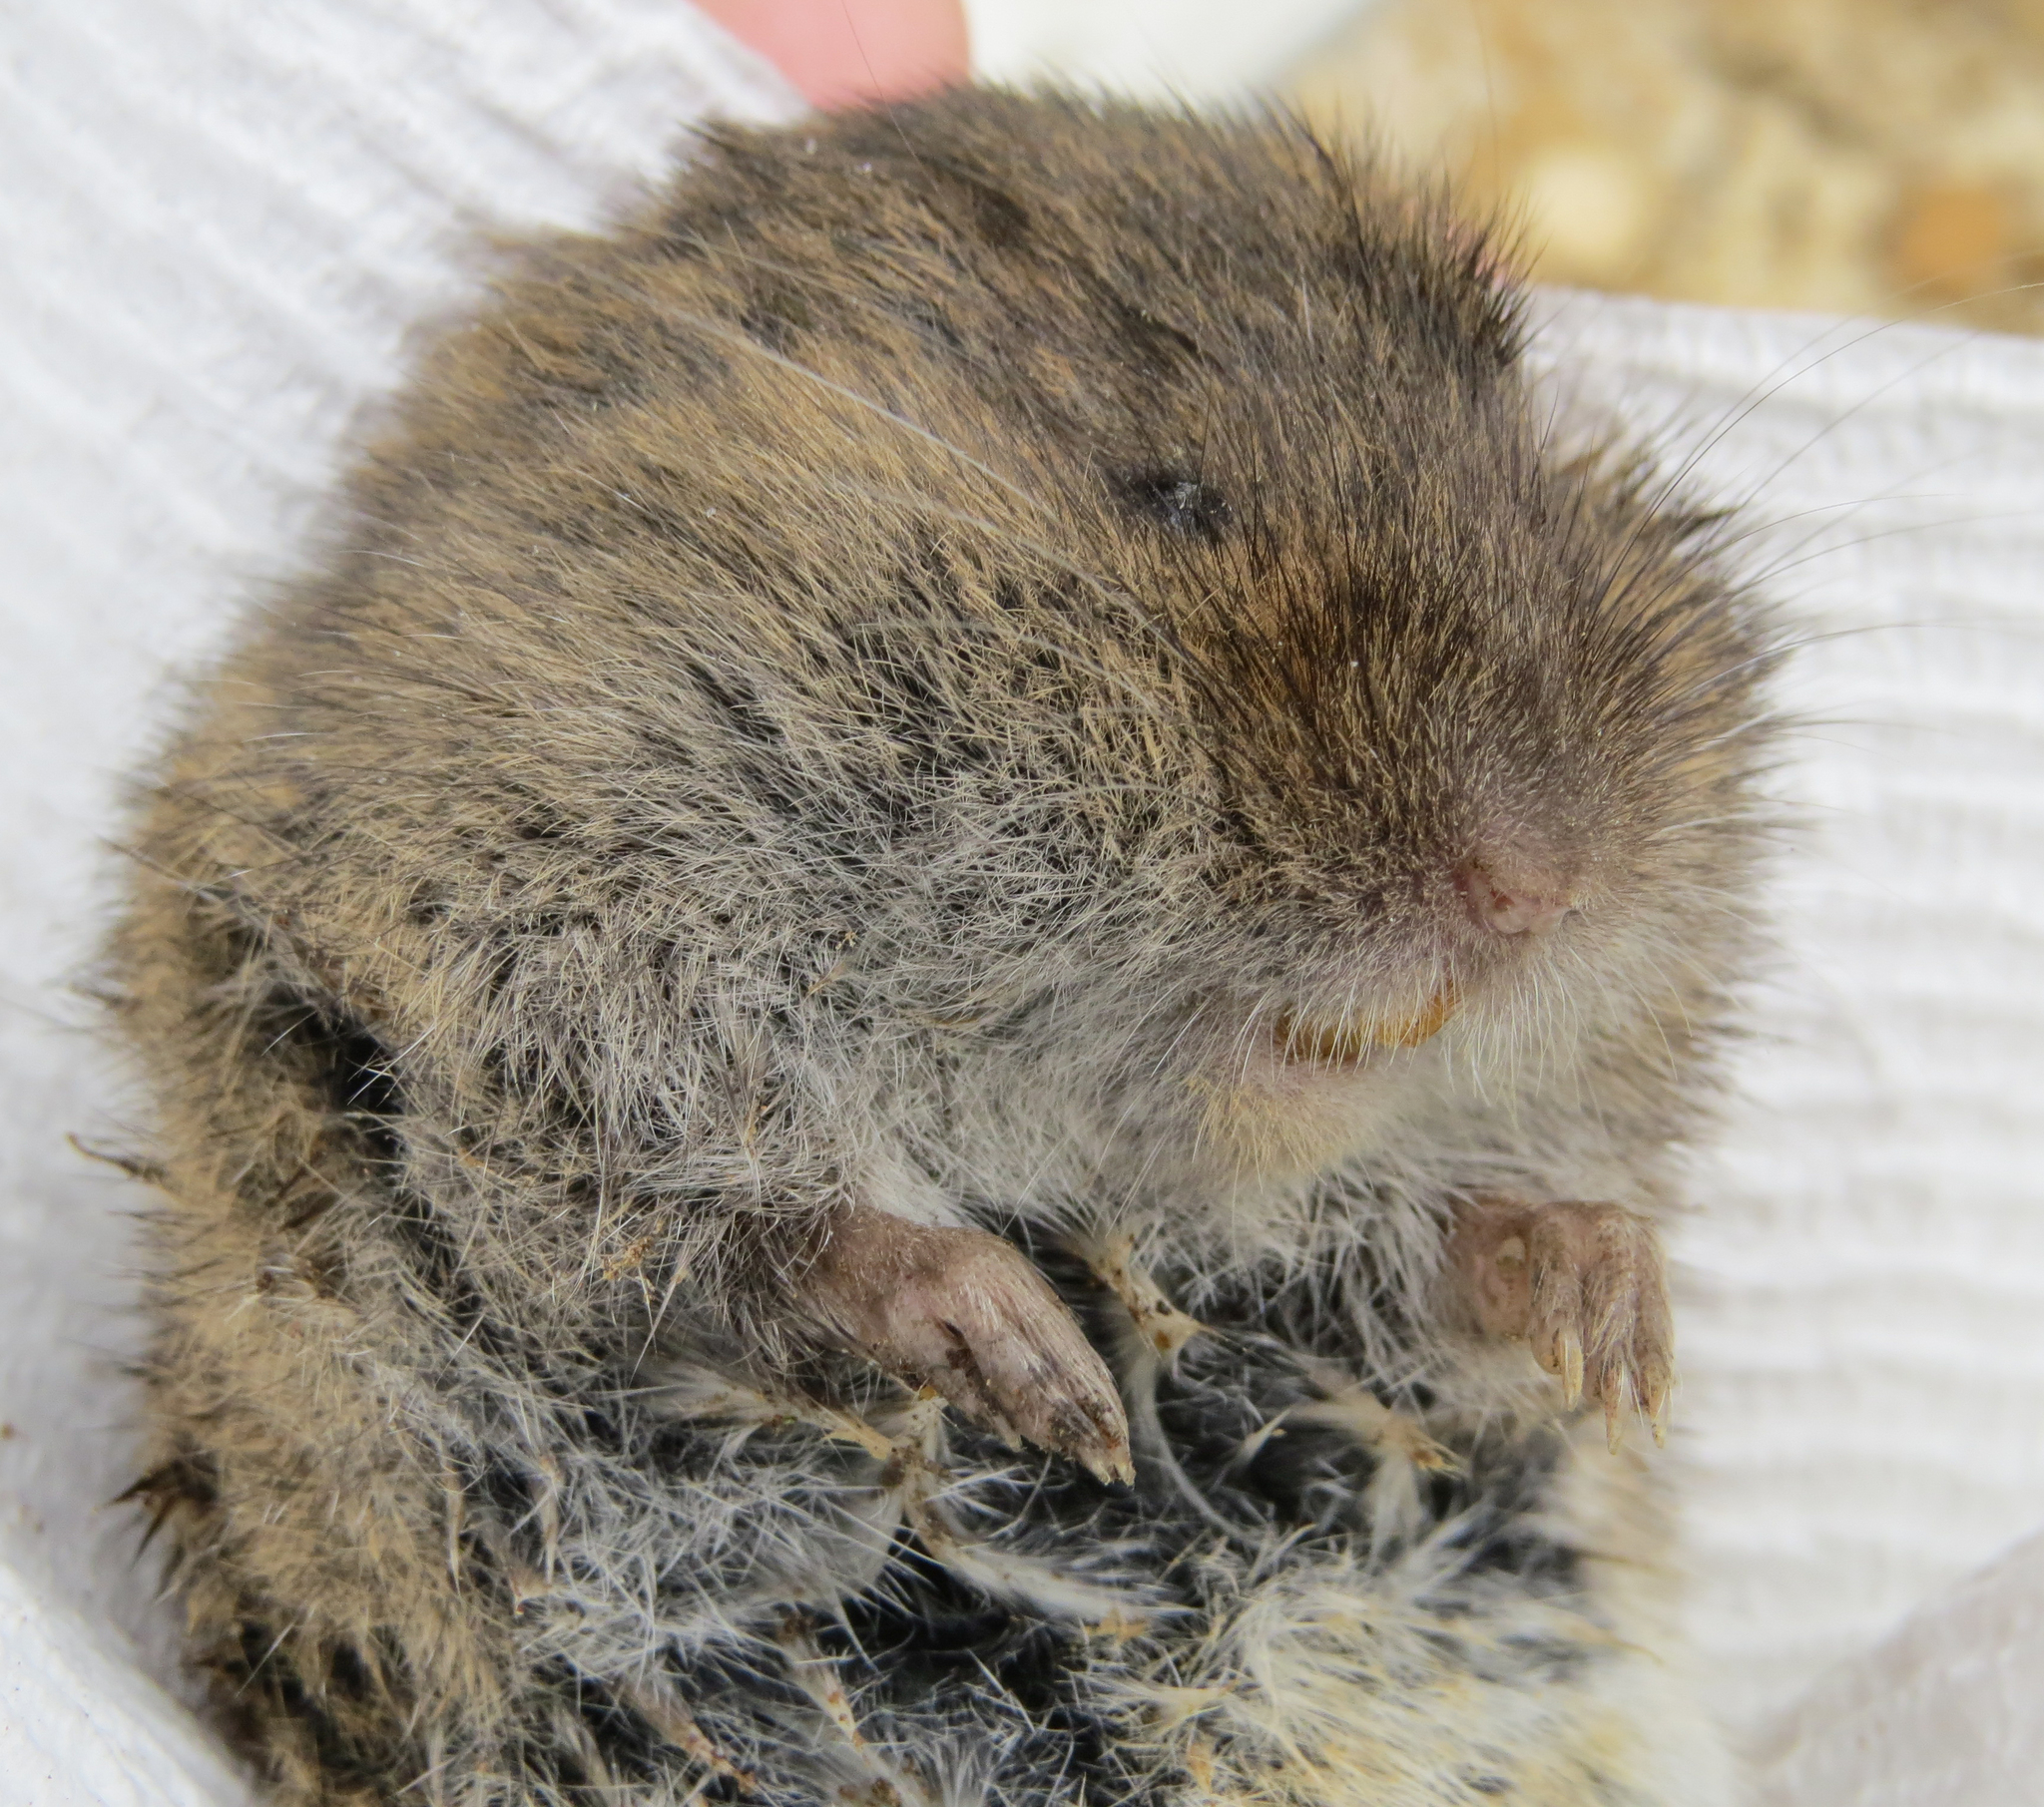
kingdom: Animalia
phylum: Chordata
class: Mammalia
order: Rodentia
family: Cricetidae
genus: Microtus
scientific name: Microtus pennsylvanicus
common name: Meadow vole
